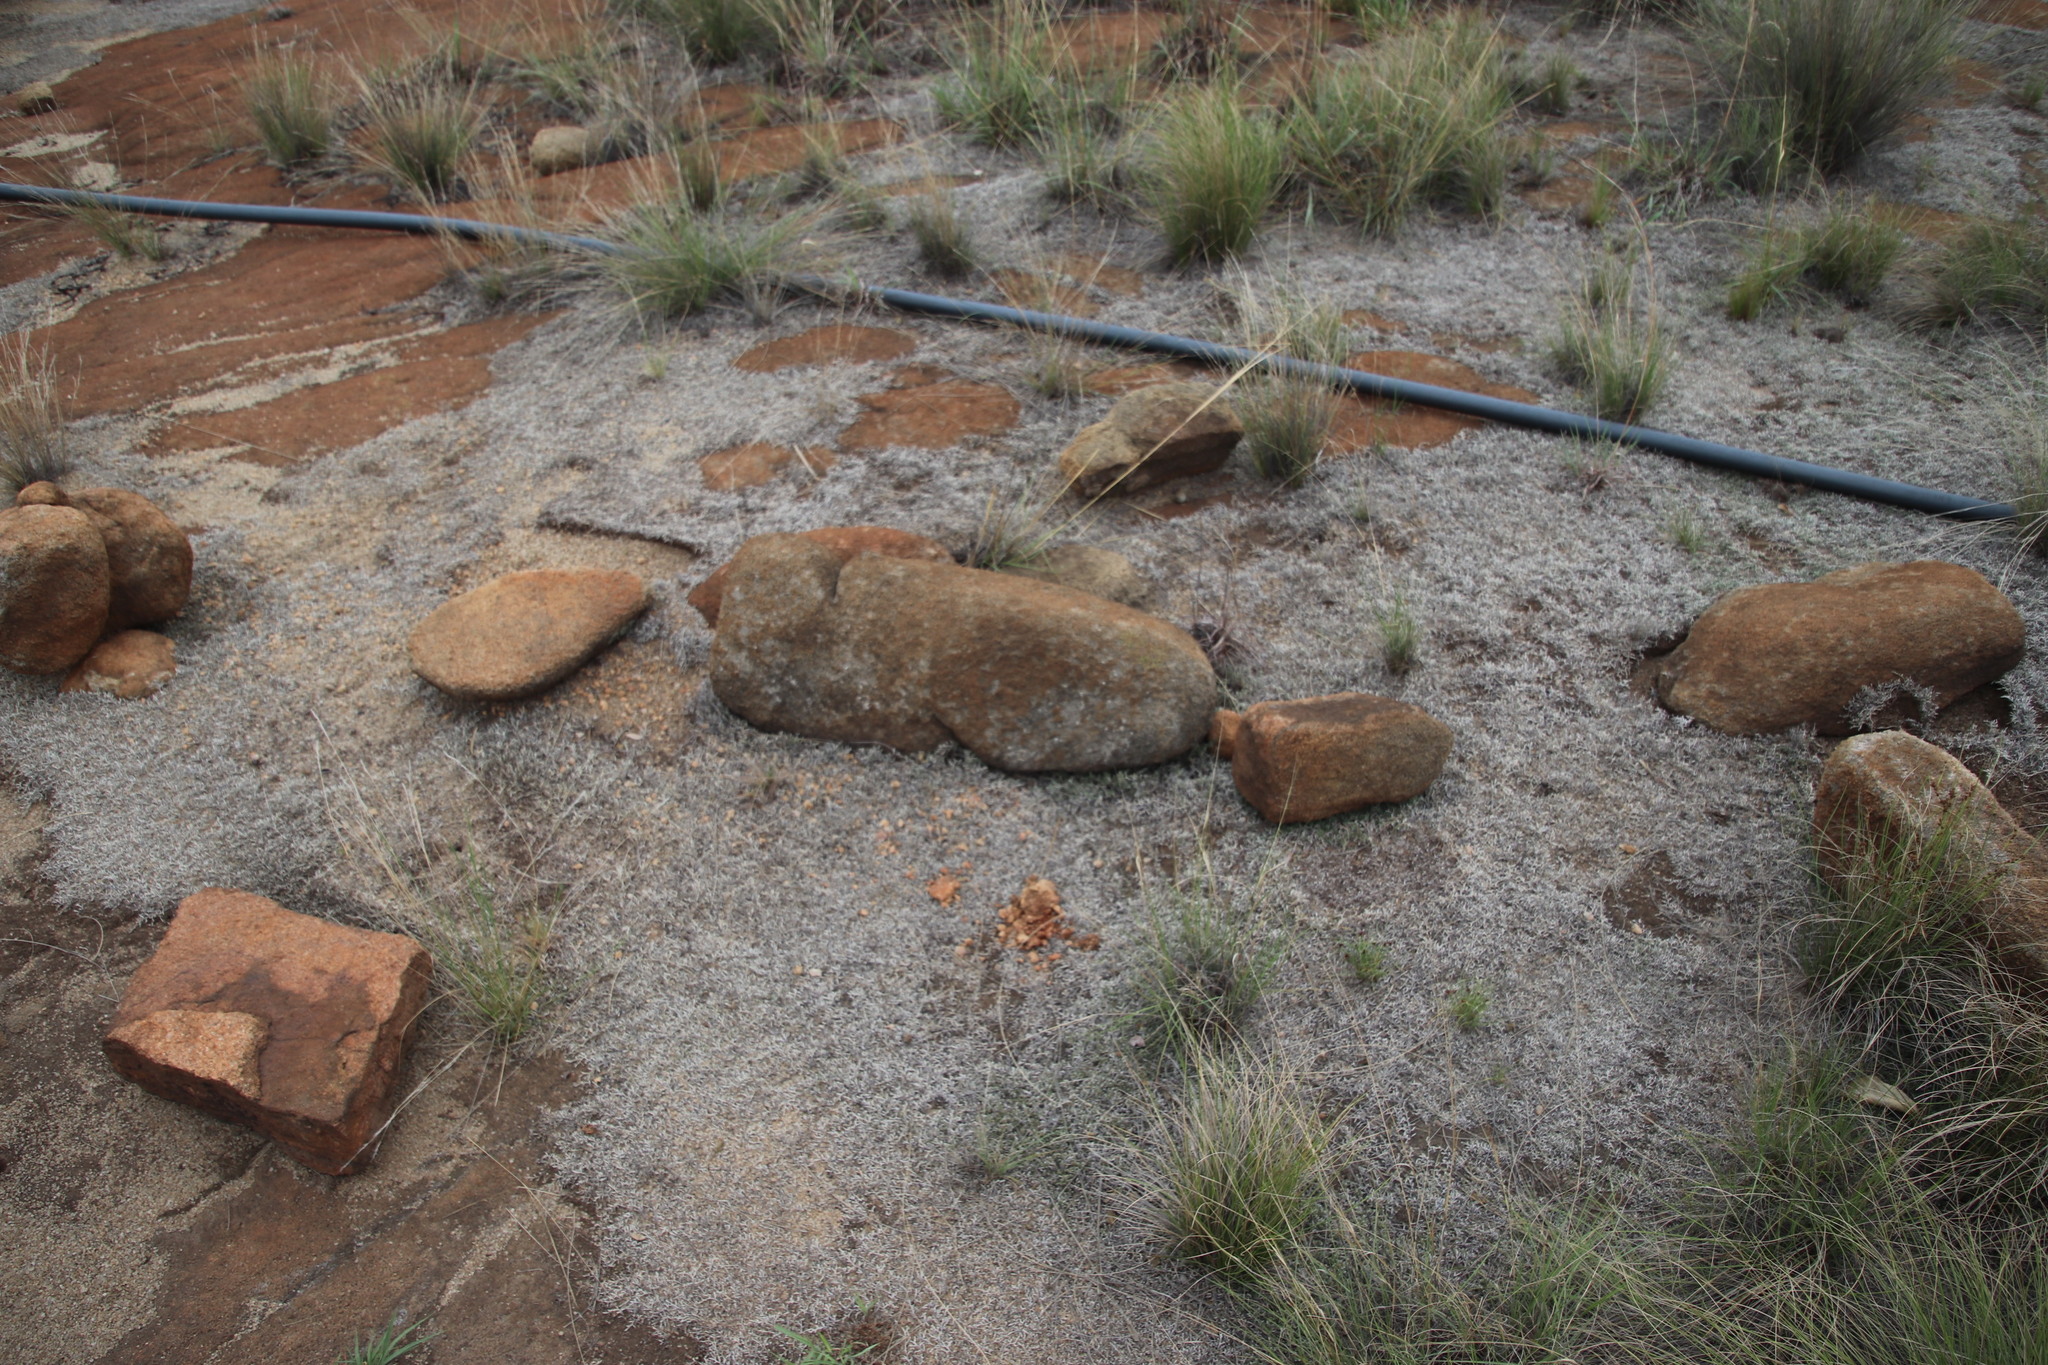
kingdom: Plantae
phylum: Tracheophyta
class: Lycopodiopsida
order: Selaginellales
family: Selaginellaceae
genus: Selaginella
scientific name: Selaginella dregei
